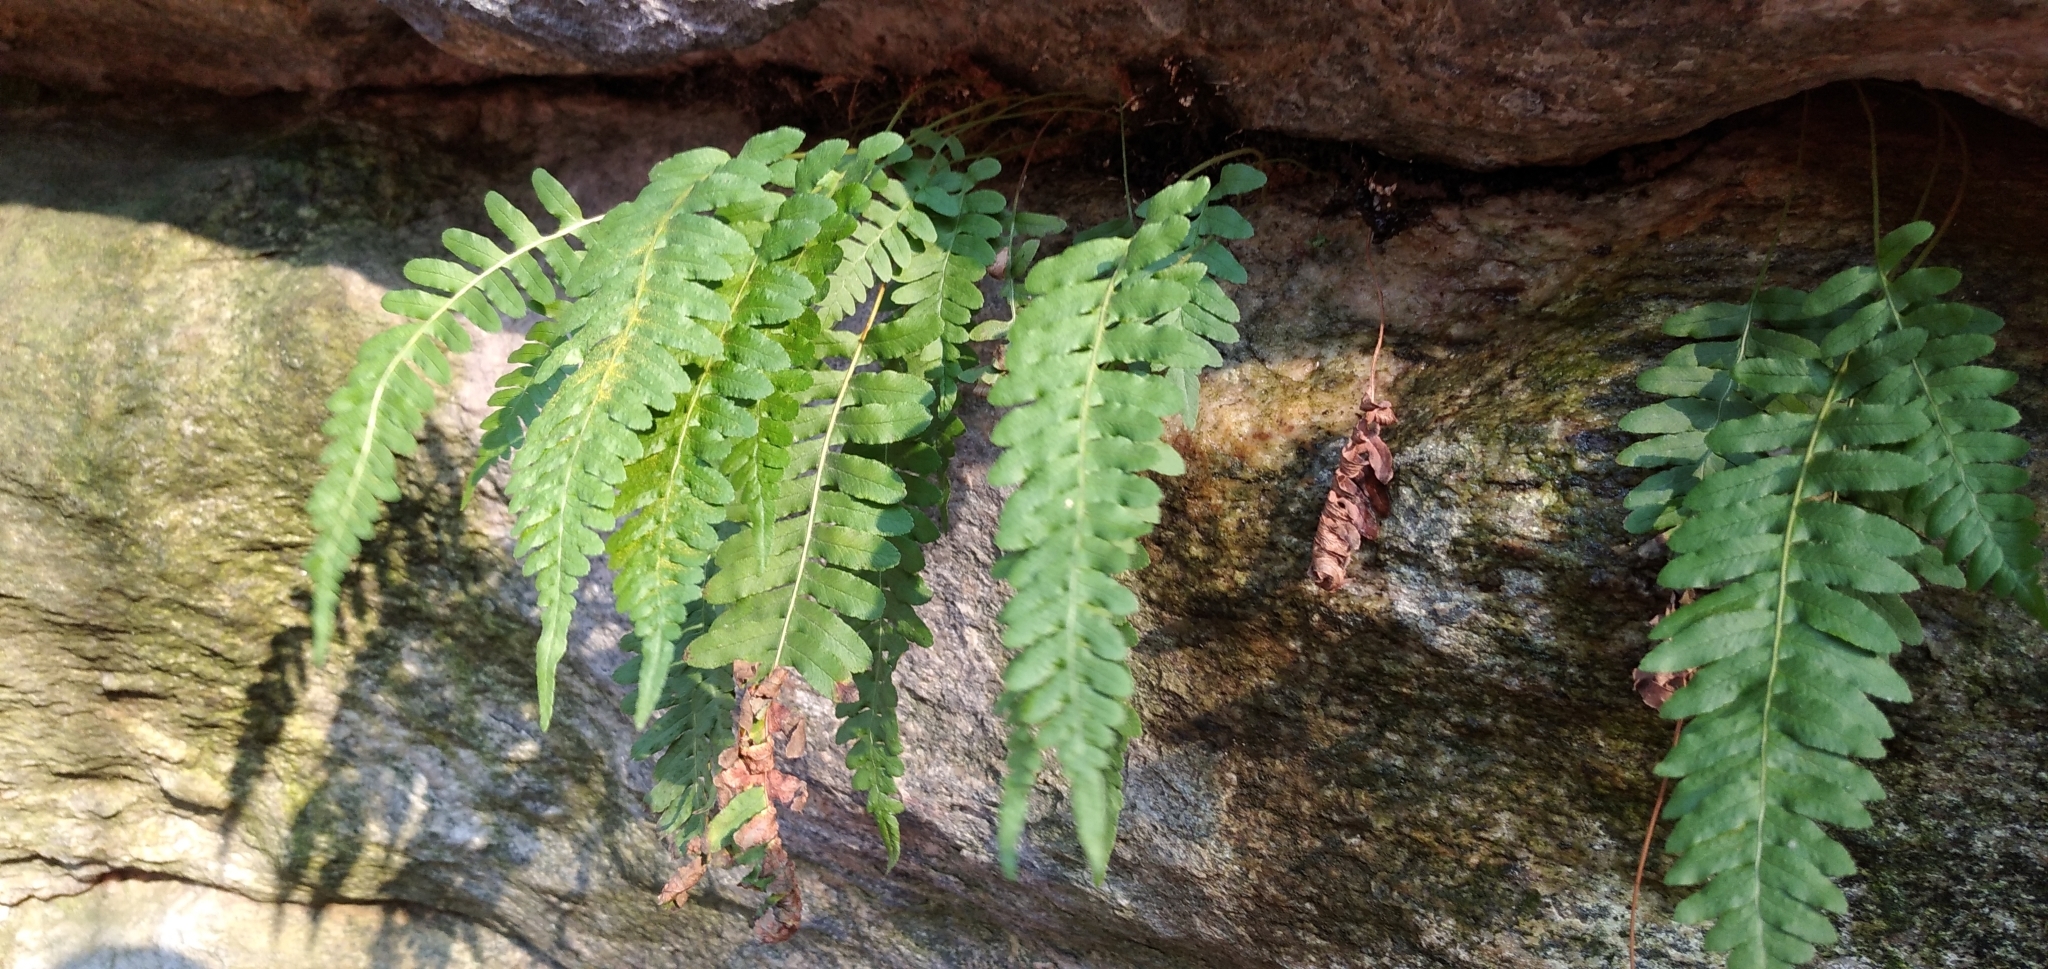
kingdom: Plantae
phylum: Tracheophyta
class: Polypodiopsida
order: Polypodiales
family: Polypodiaceae
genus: Polypodium
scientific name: Polypodium vulgare
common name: Common polypody
